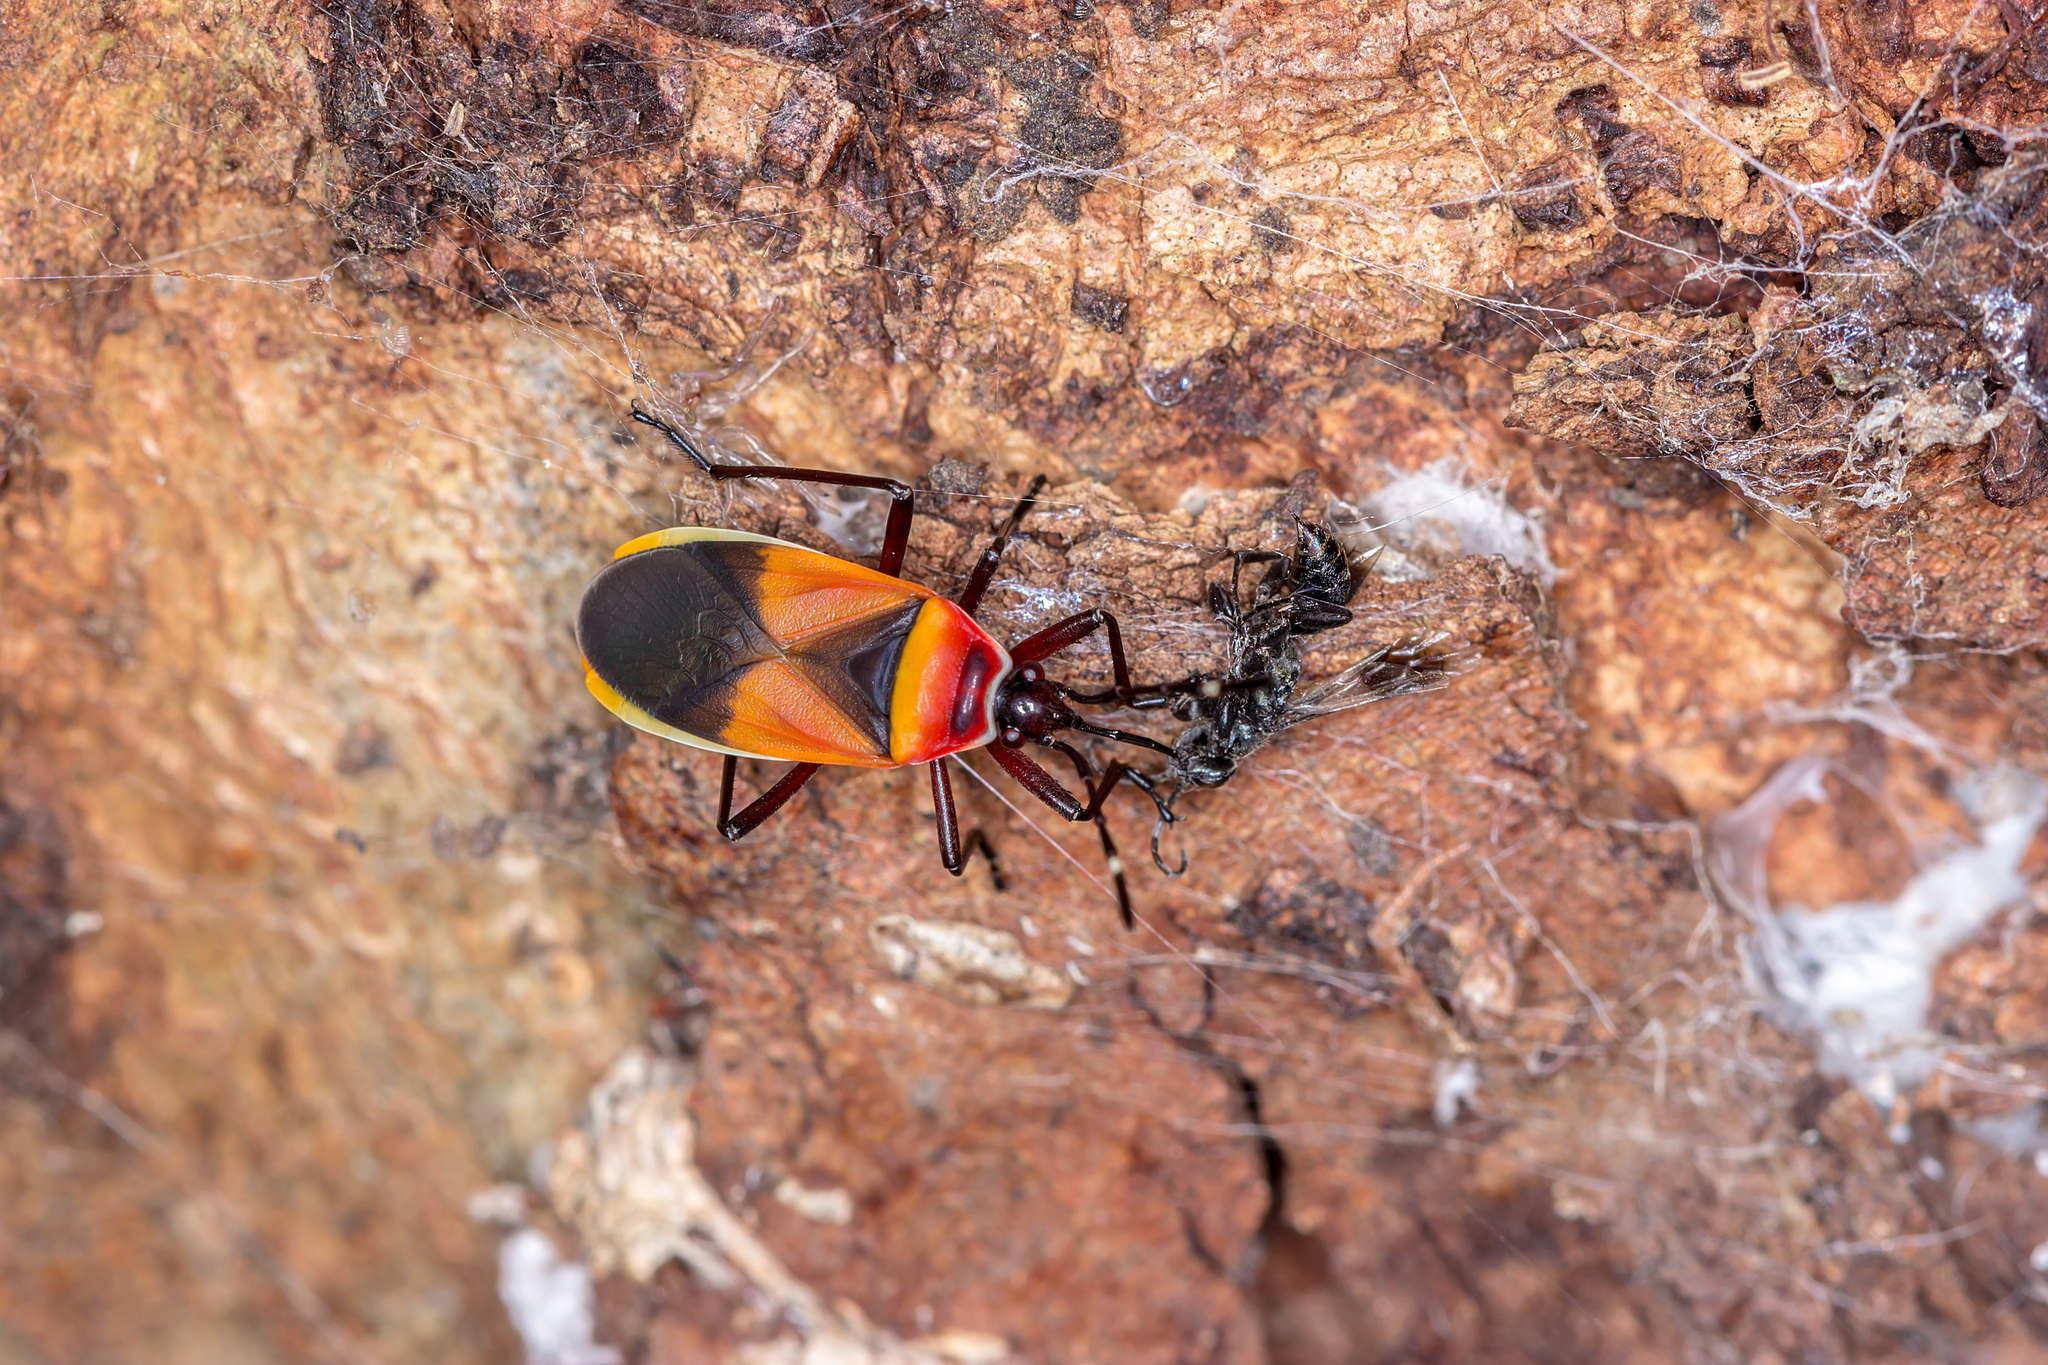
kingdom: Animalia
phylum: Arthropoda
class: Insecta
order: Hemiptera
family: Pyrrhocoridae
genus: Dindymus
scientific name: Dindymus
